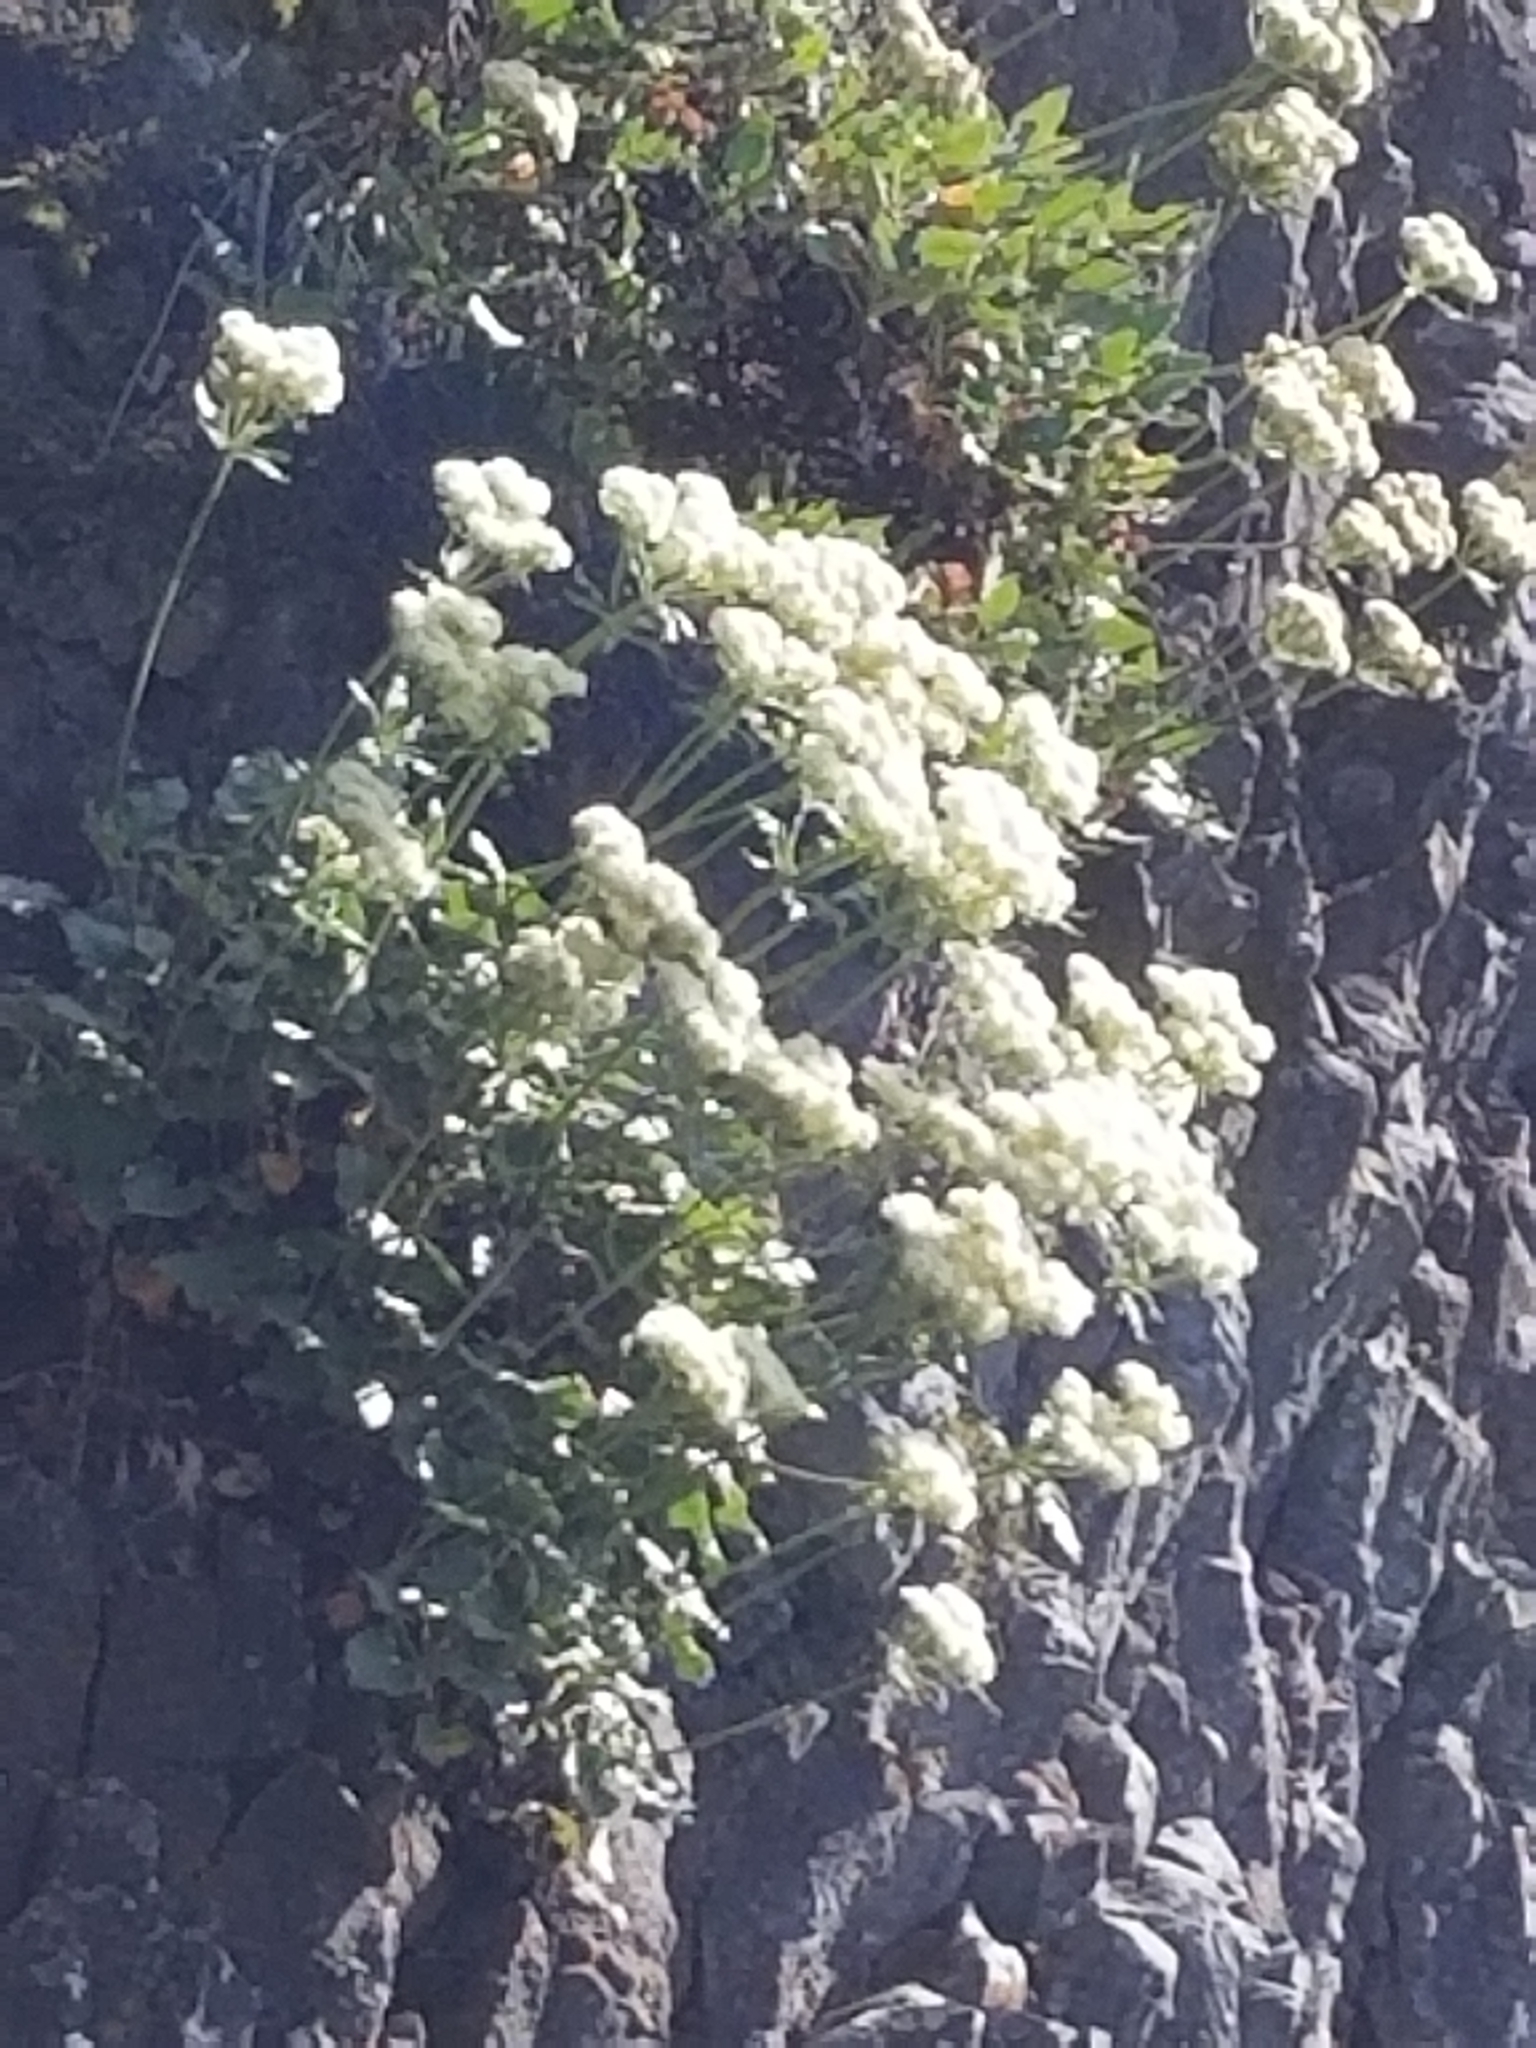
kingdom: Plantae
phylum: Tracheophyta
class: Magnoliopsida
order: Caryophyllales
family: Polygonaceae
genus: Eriogonum
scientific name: Eriogonum compositum
